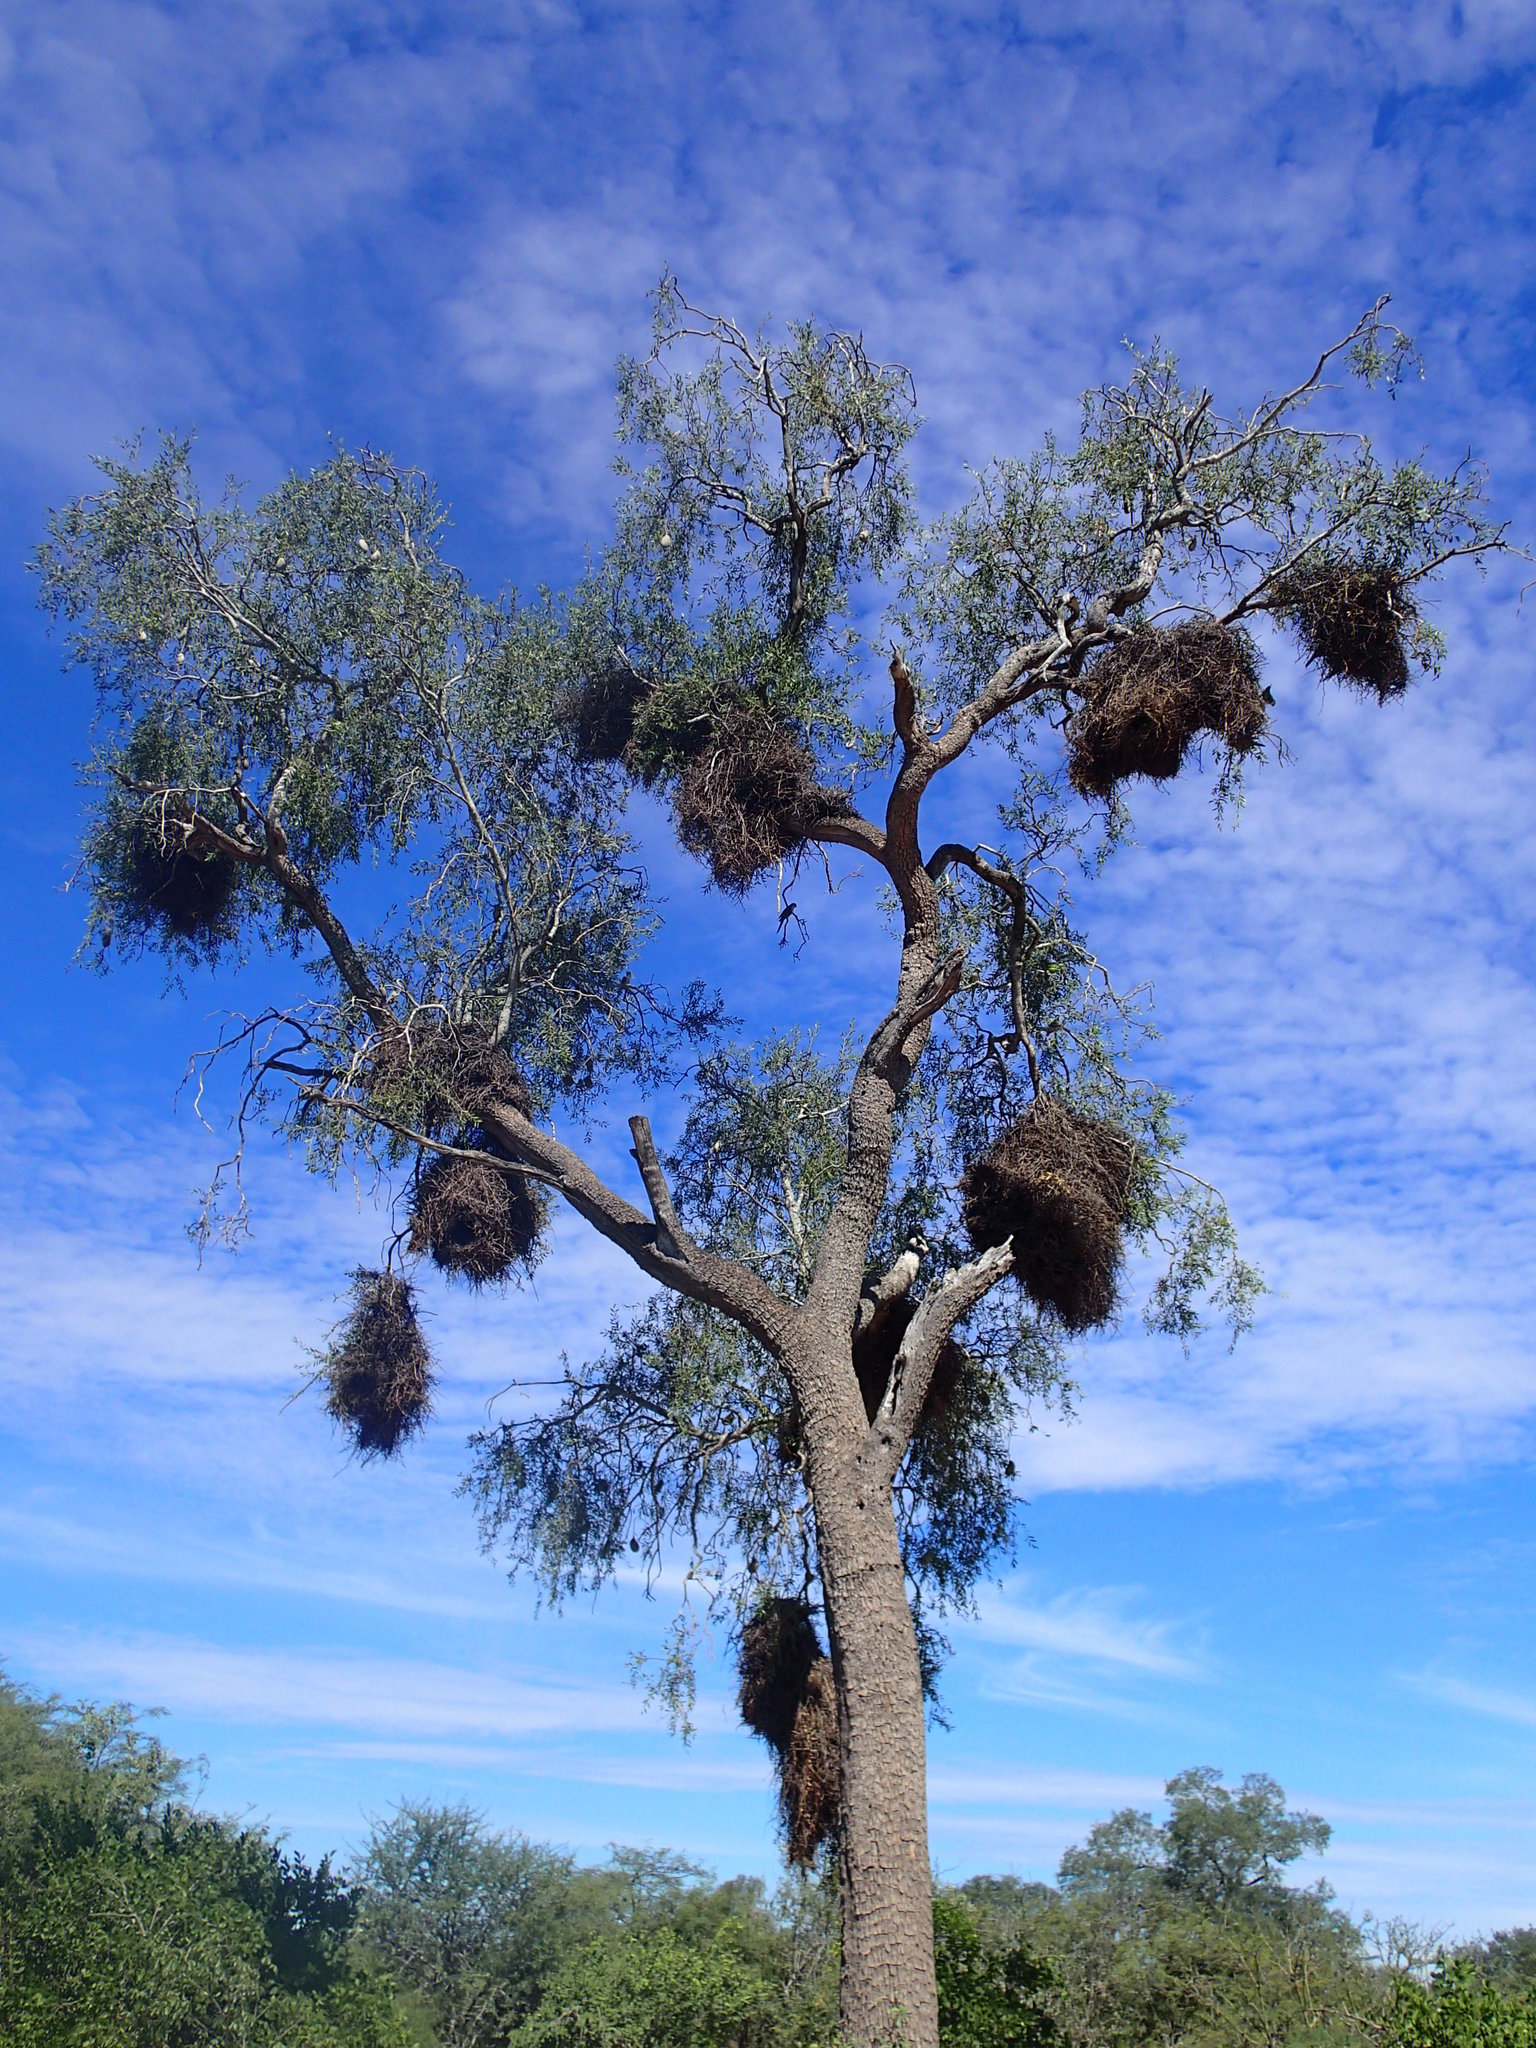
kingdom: Animalia
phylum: Chordata
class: Aves
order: Psittaciformes
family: Psittacidae
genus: Myiopsitta
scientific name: Myiopsitta monachus
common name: Monk parakeet
